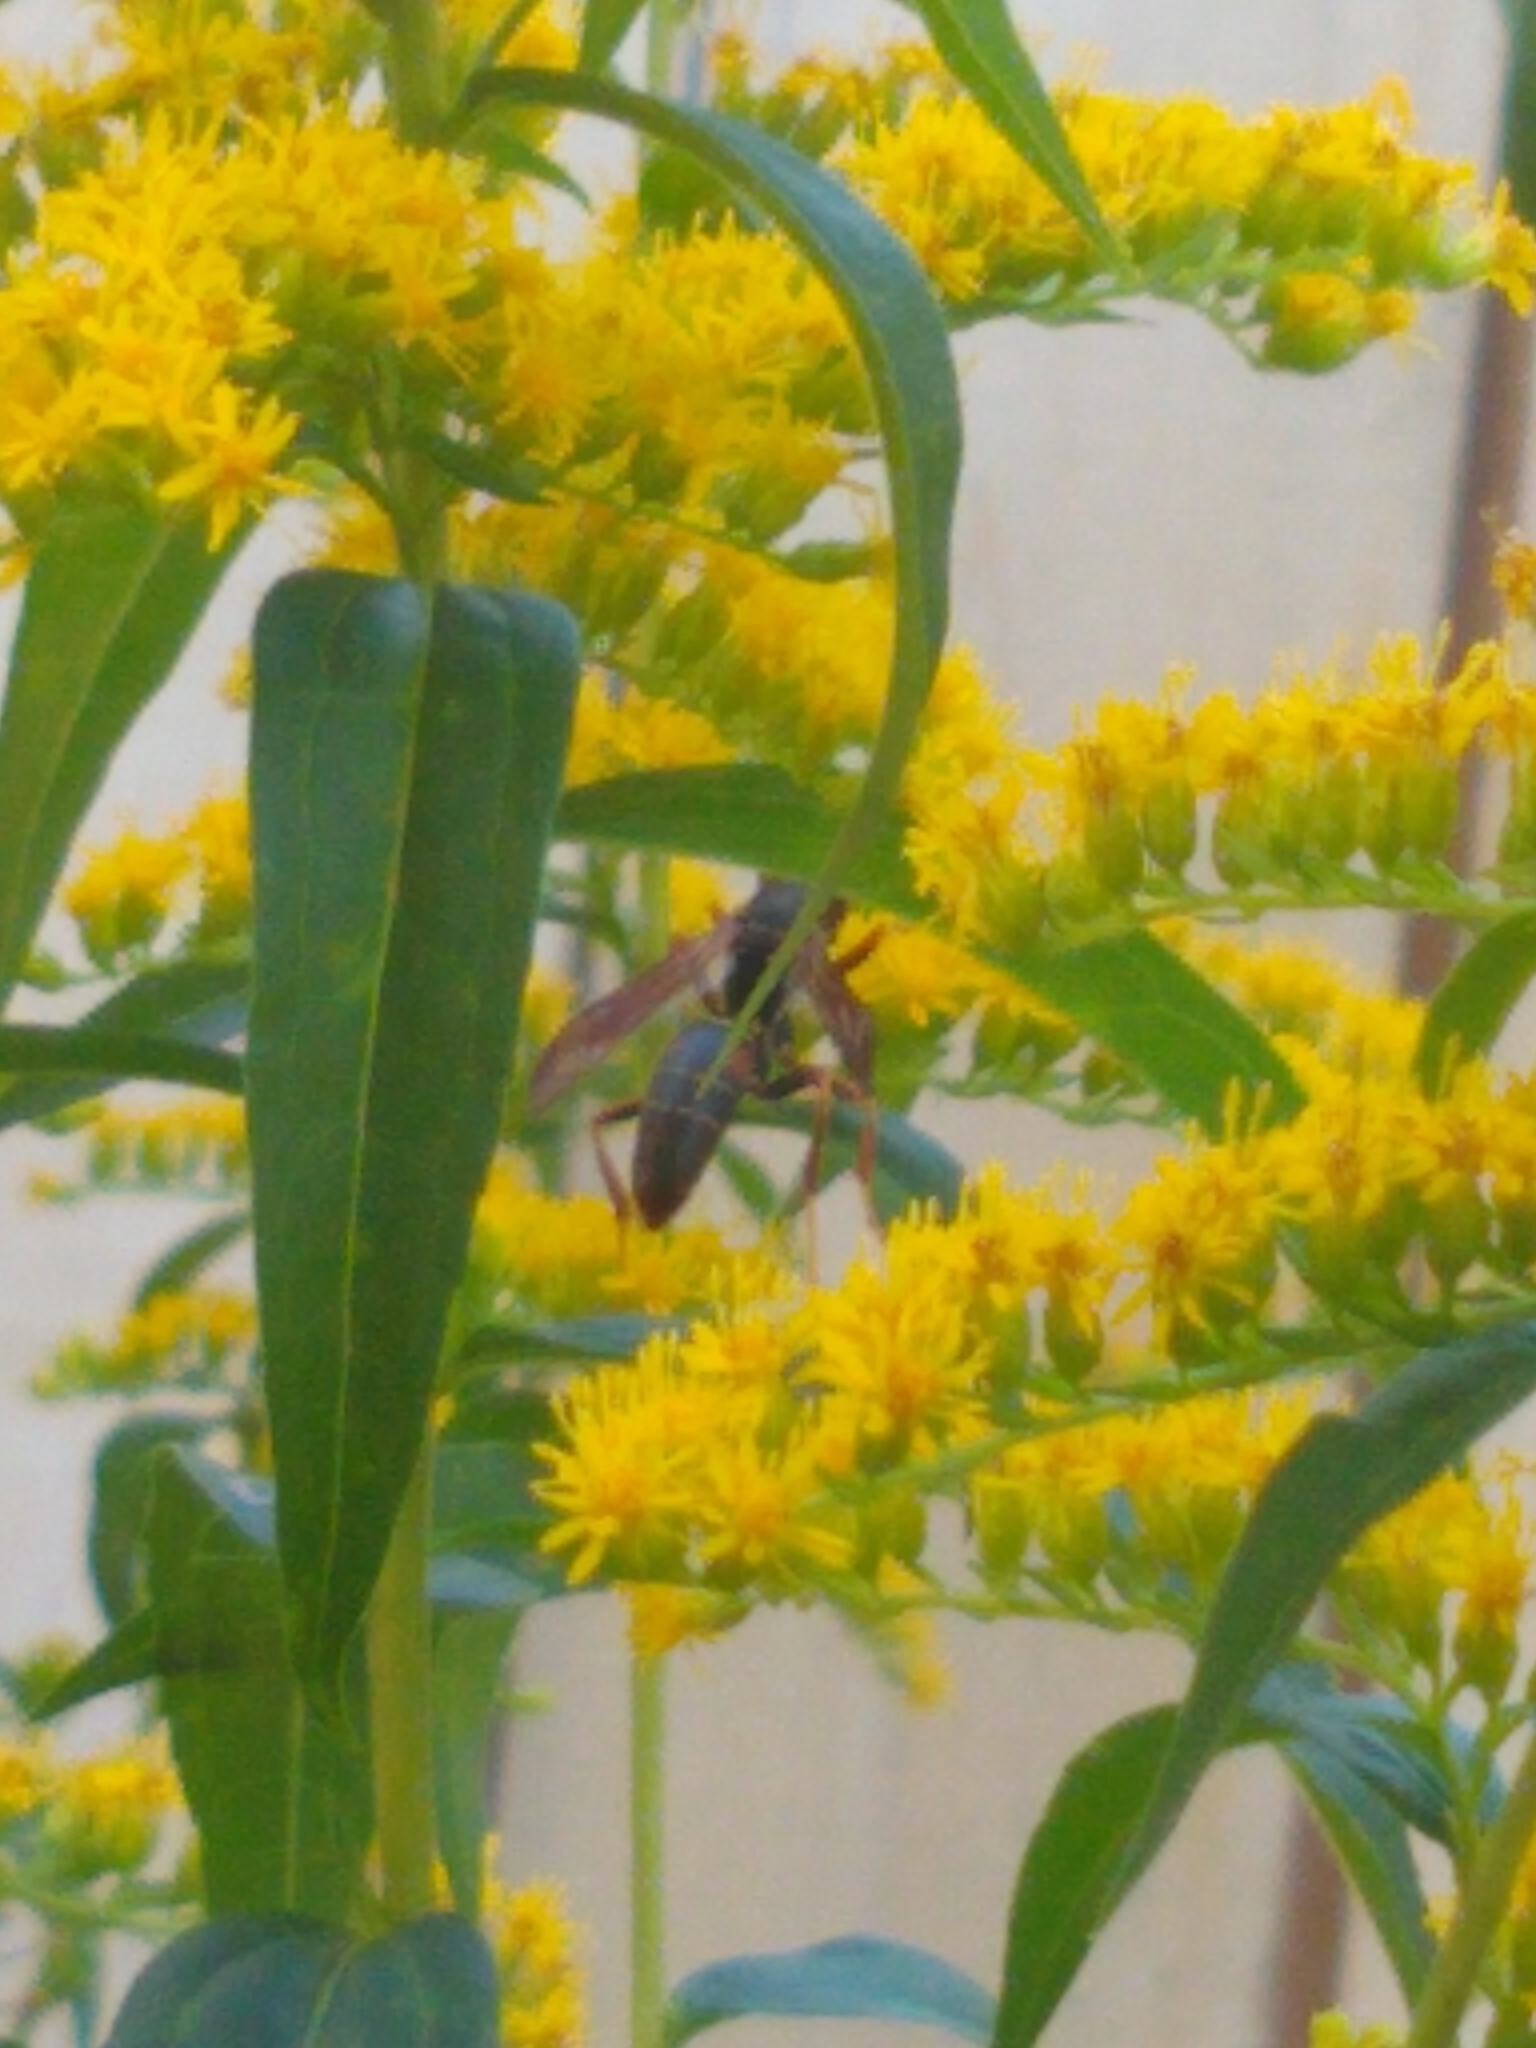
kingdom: Animalia
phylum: Arthropoda
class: Insecta
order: Hymenoptera
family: Eumenidae
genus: Polistes
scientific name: Polistes fuscatus
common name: Dark paper wasp
